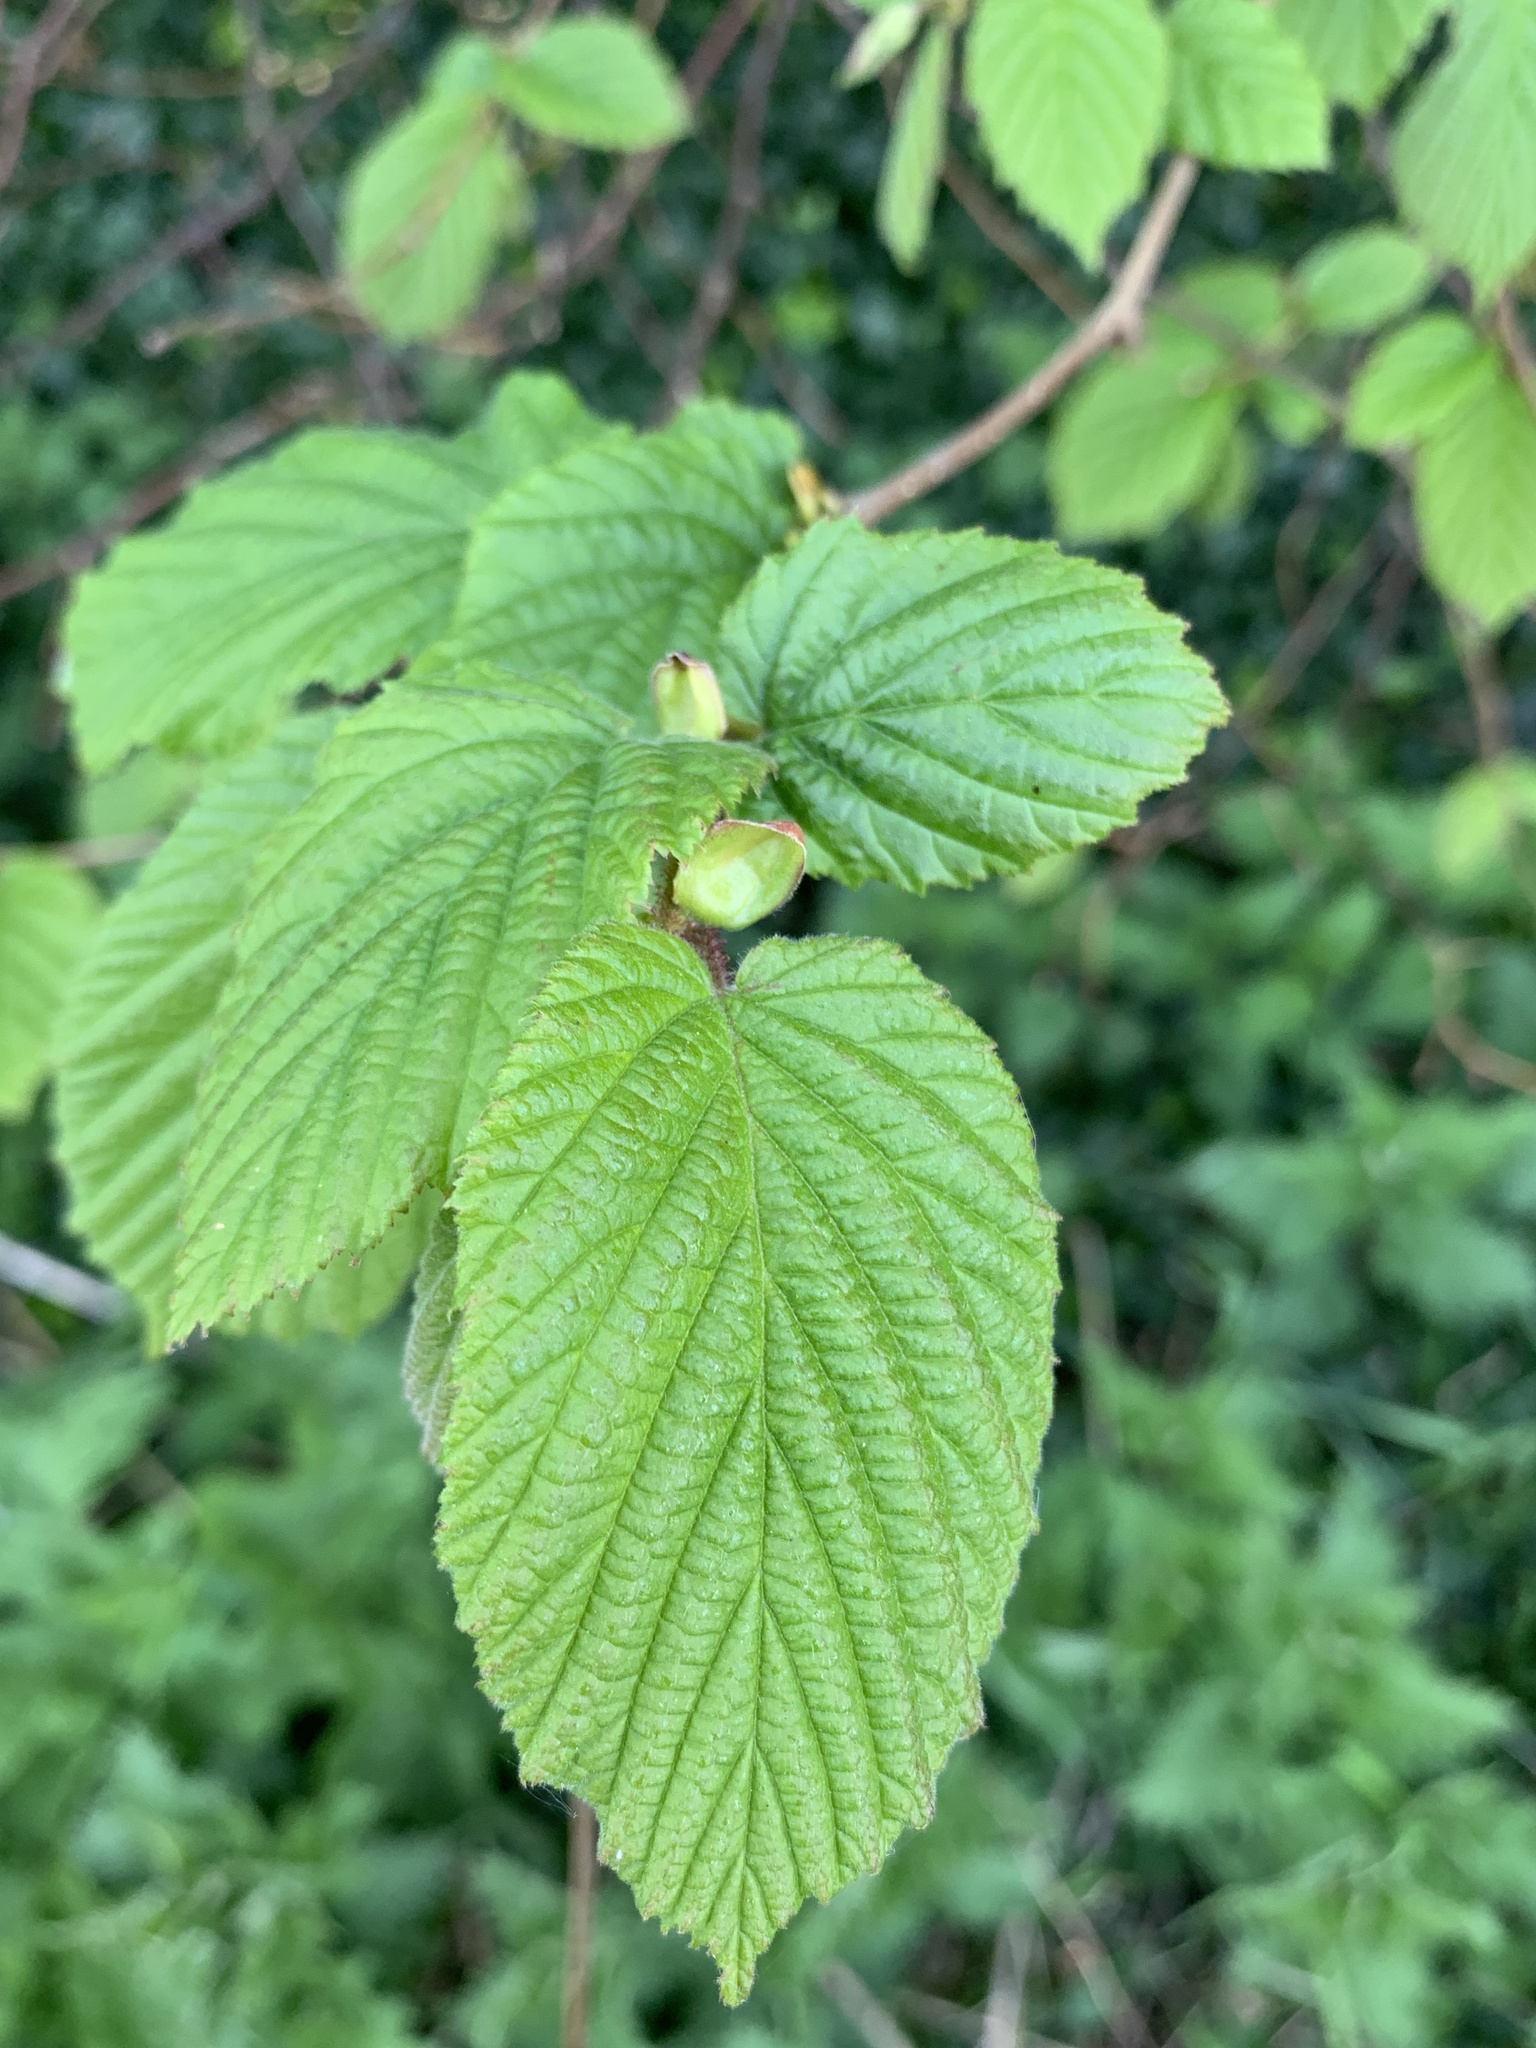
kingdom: Plantae
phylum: Tracheophyta
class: Magnoliopsida
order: Fagales
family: Betulaceae
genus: Corylus
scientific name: Corylus avellana
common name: European hazel
